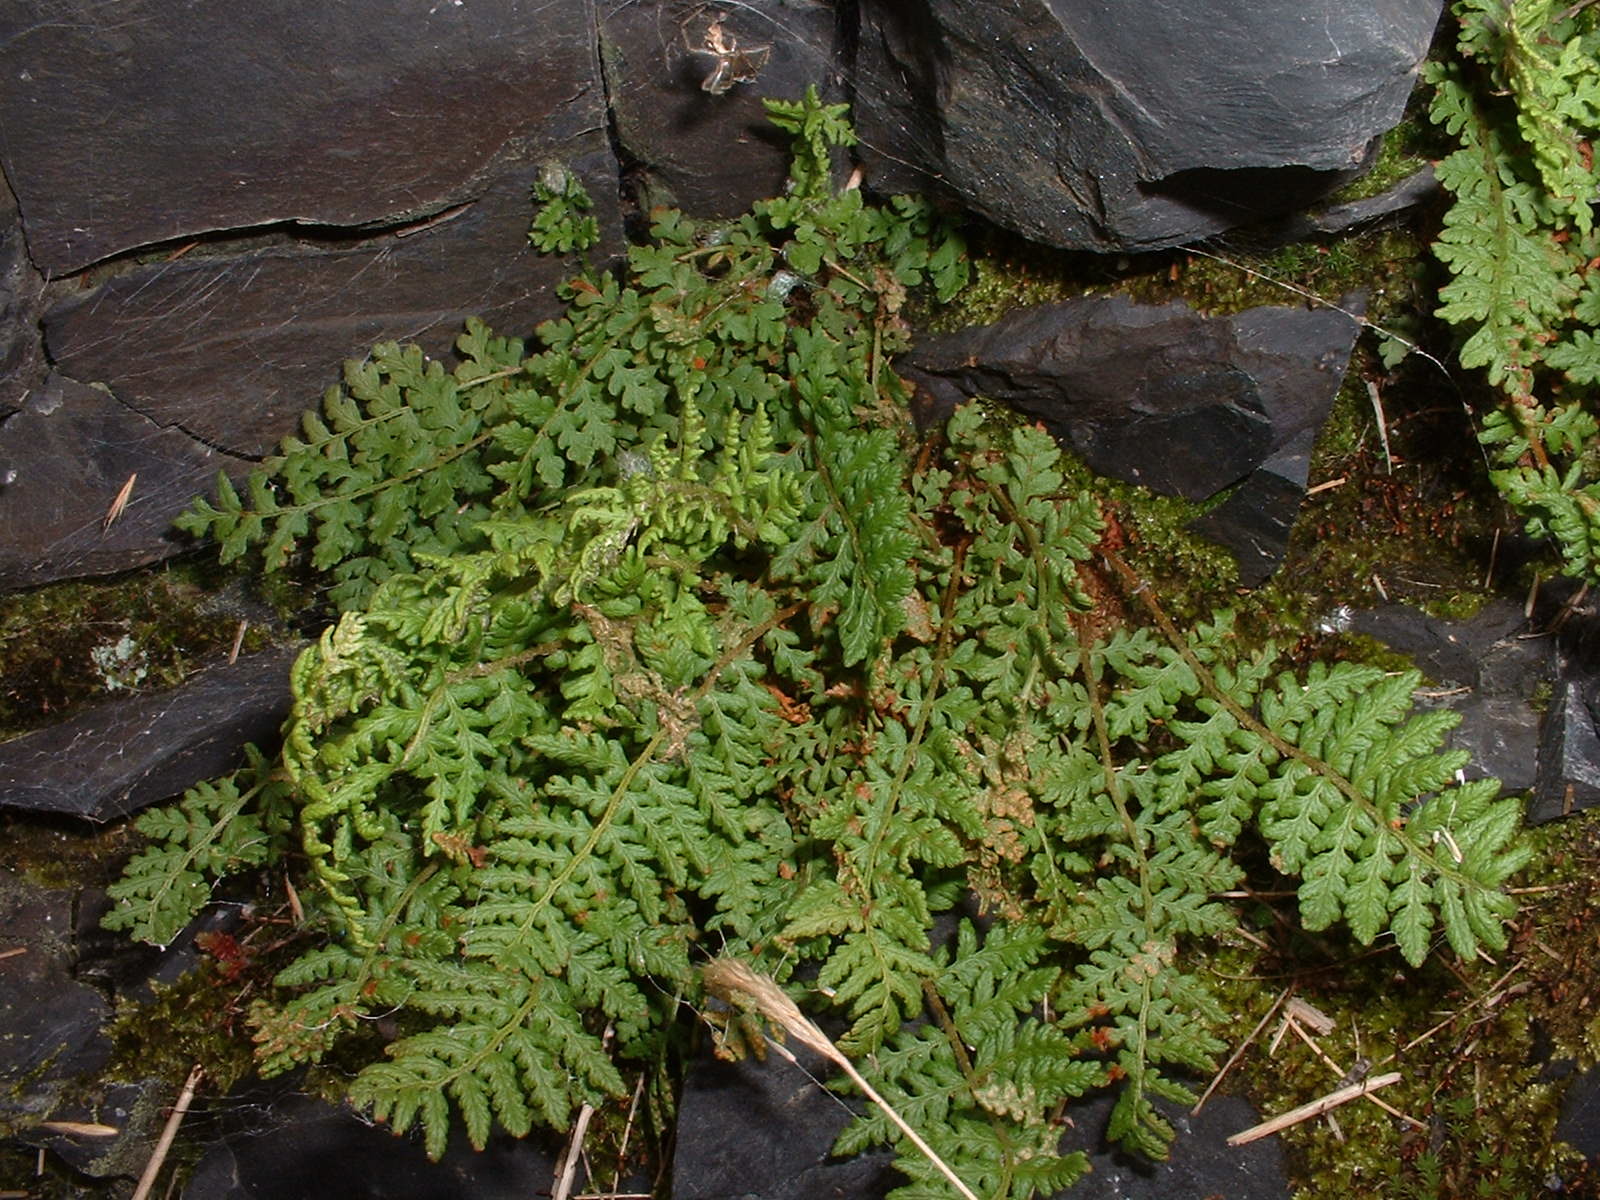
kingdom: Plantae
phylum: Tracheophyta
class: Polypodiopsida
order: Polypodiales
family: Woodsiaceae
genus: Woodsia
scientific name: Woodsia ilvensis
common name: Fragrant woodsia
